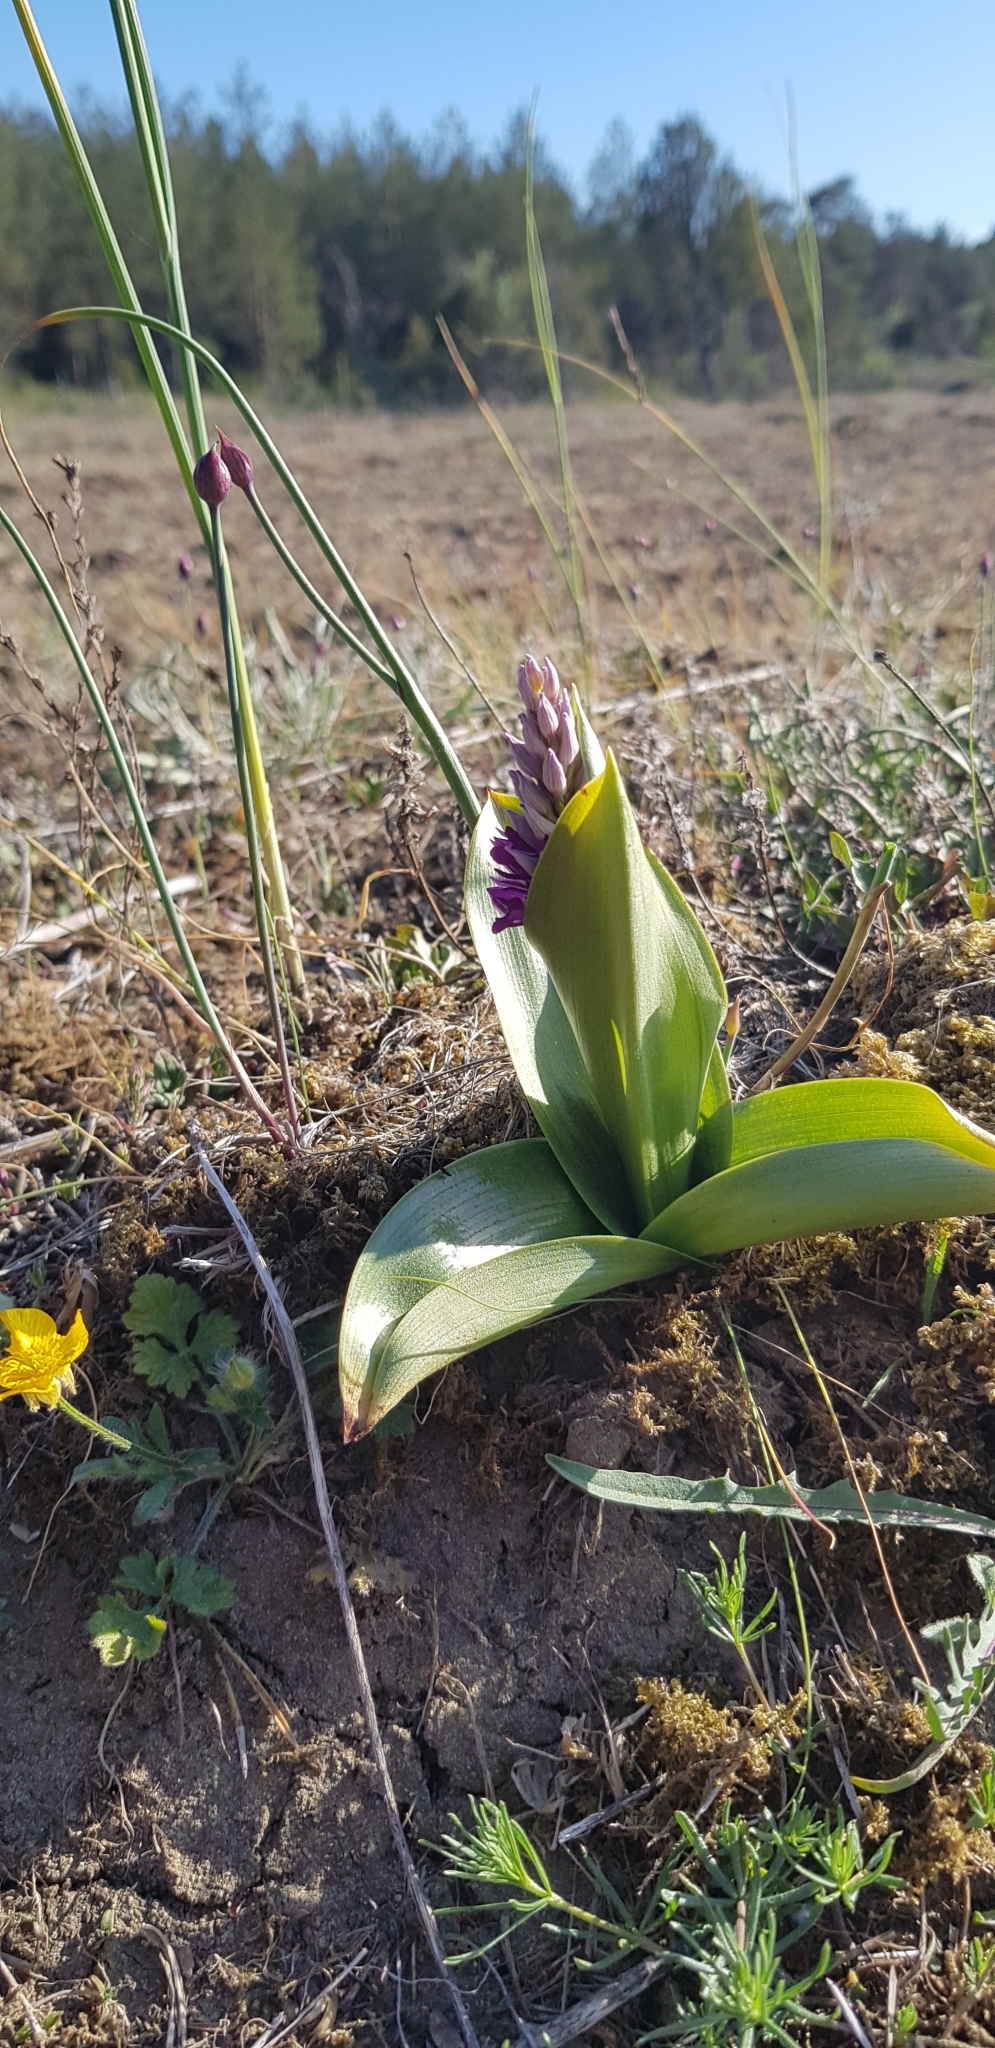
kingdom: Plantae
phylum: Tracheophyta
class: Liliopsida
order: Asparagales
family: Orchidaceae
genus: Orchis
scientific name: Orchis militaris
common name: Military orchid
